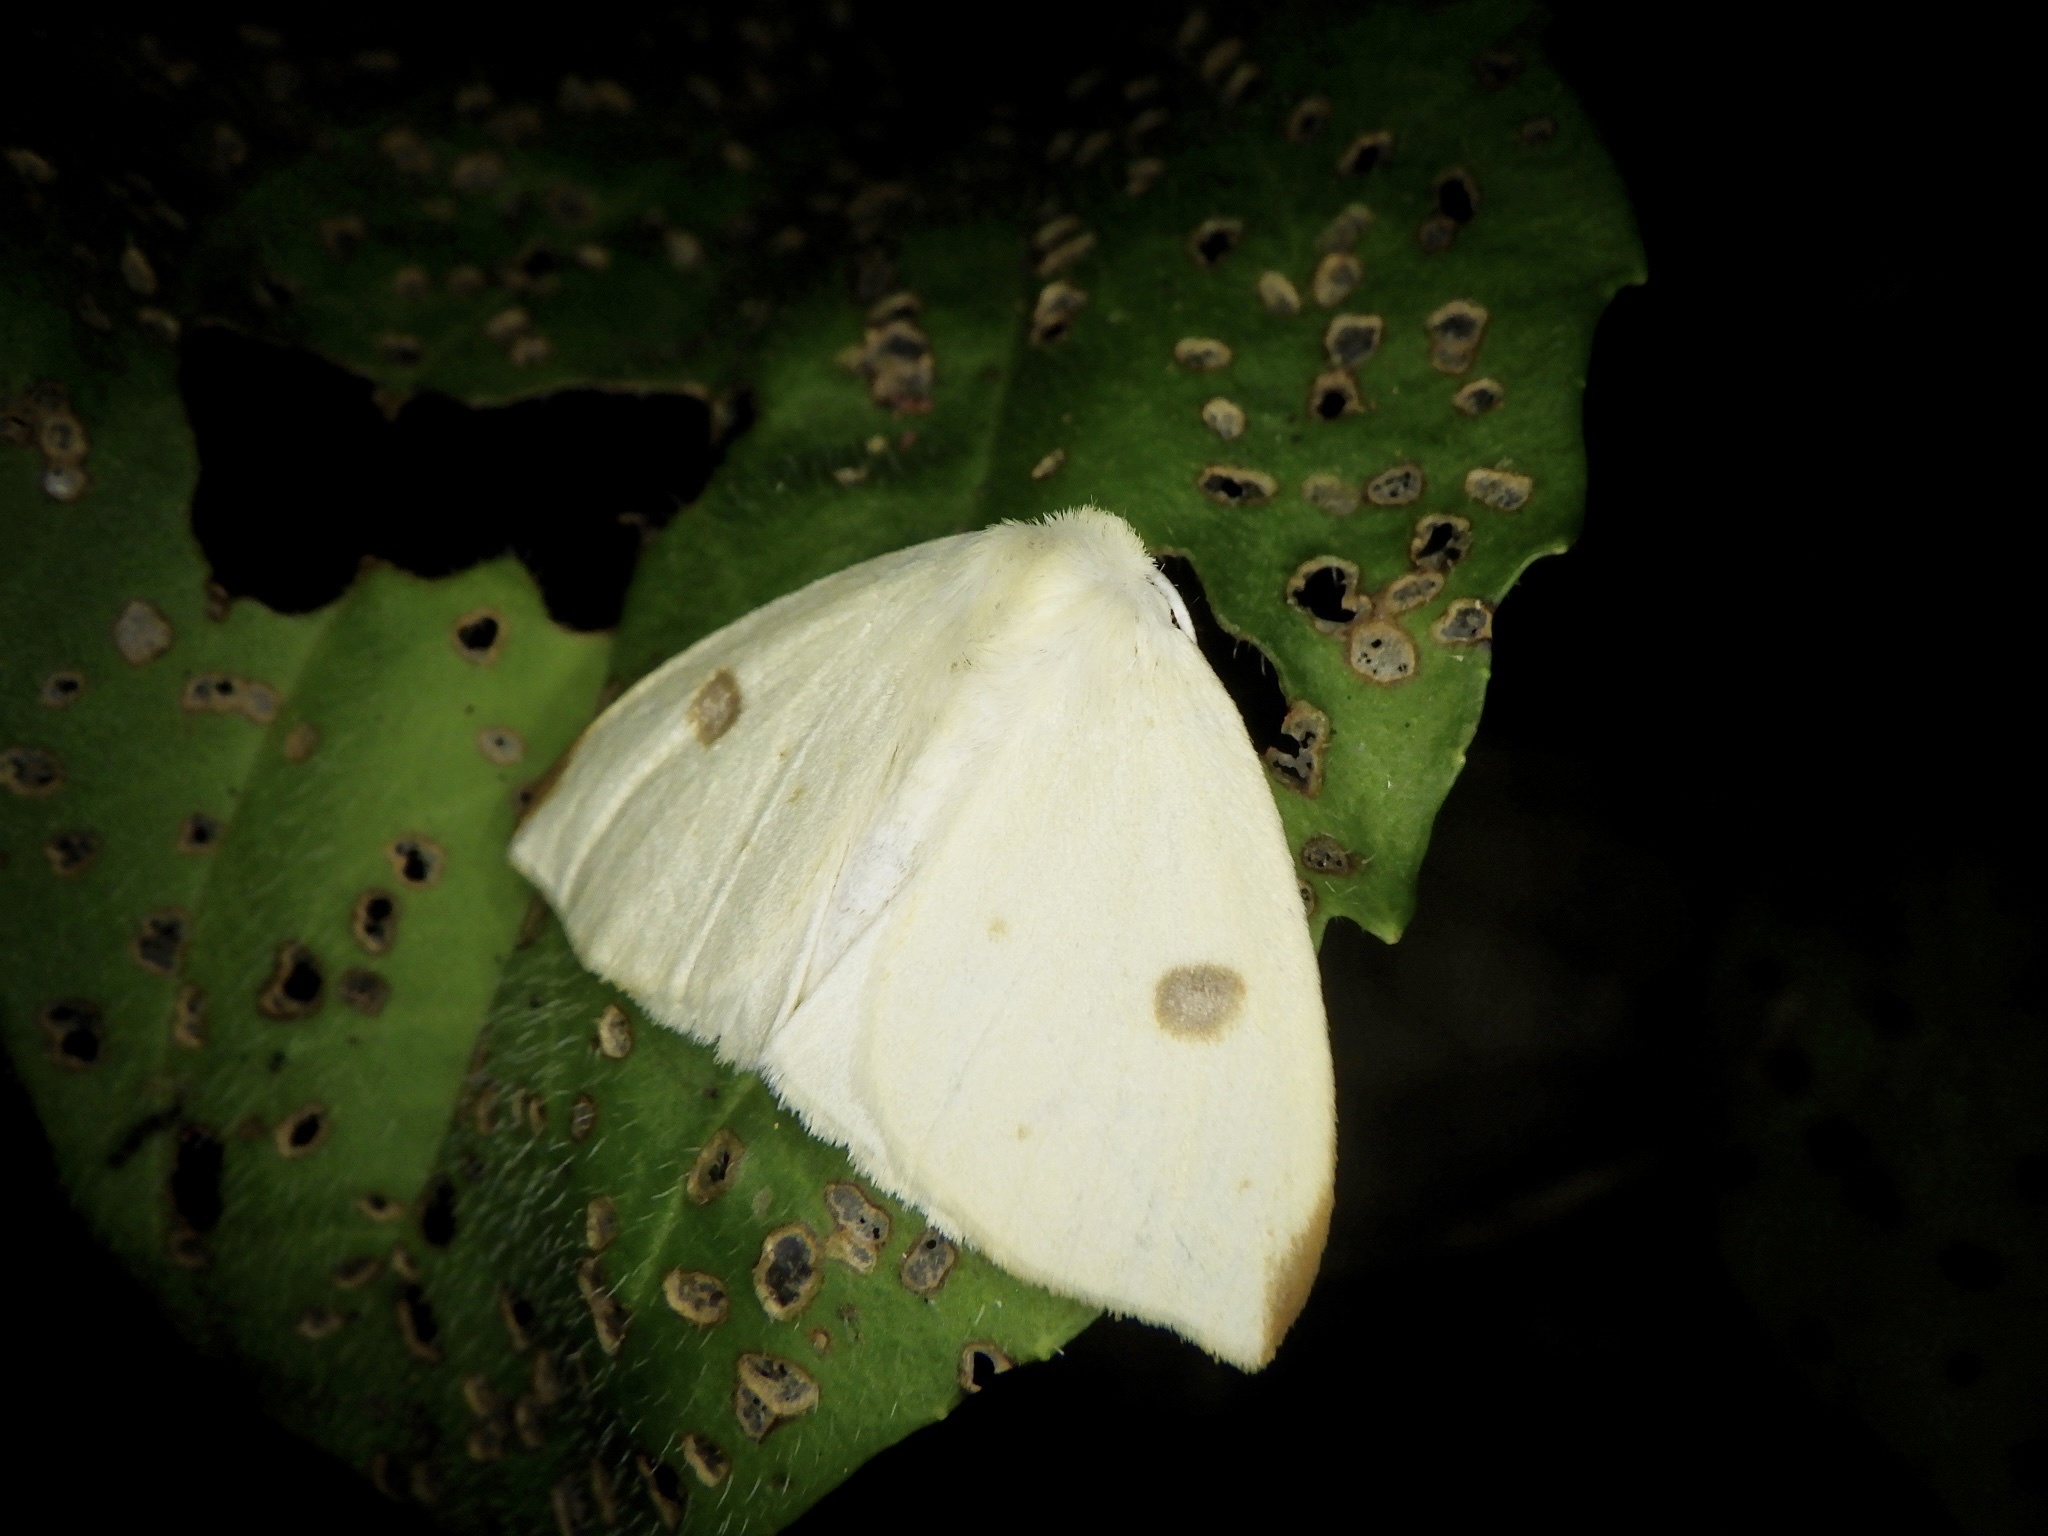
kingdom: Animalia
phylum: Arthropoda
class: Insecta
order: Lepidoptera
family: Erebidae
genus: Topomesoides
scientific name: Topomesoides jonasii
